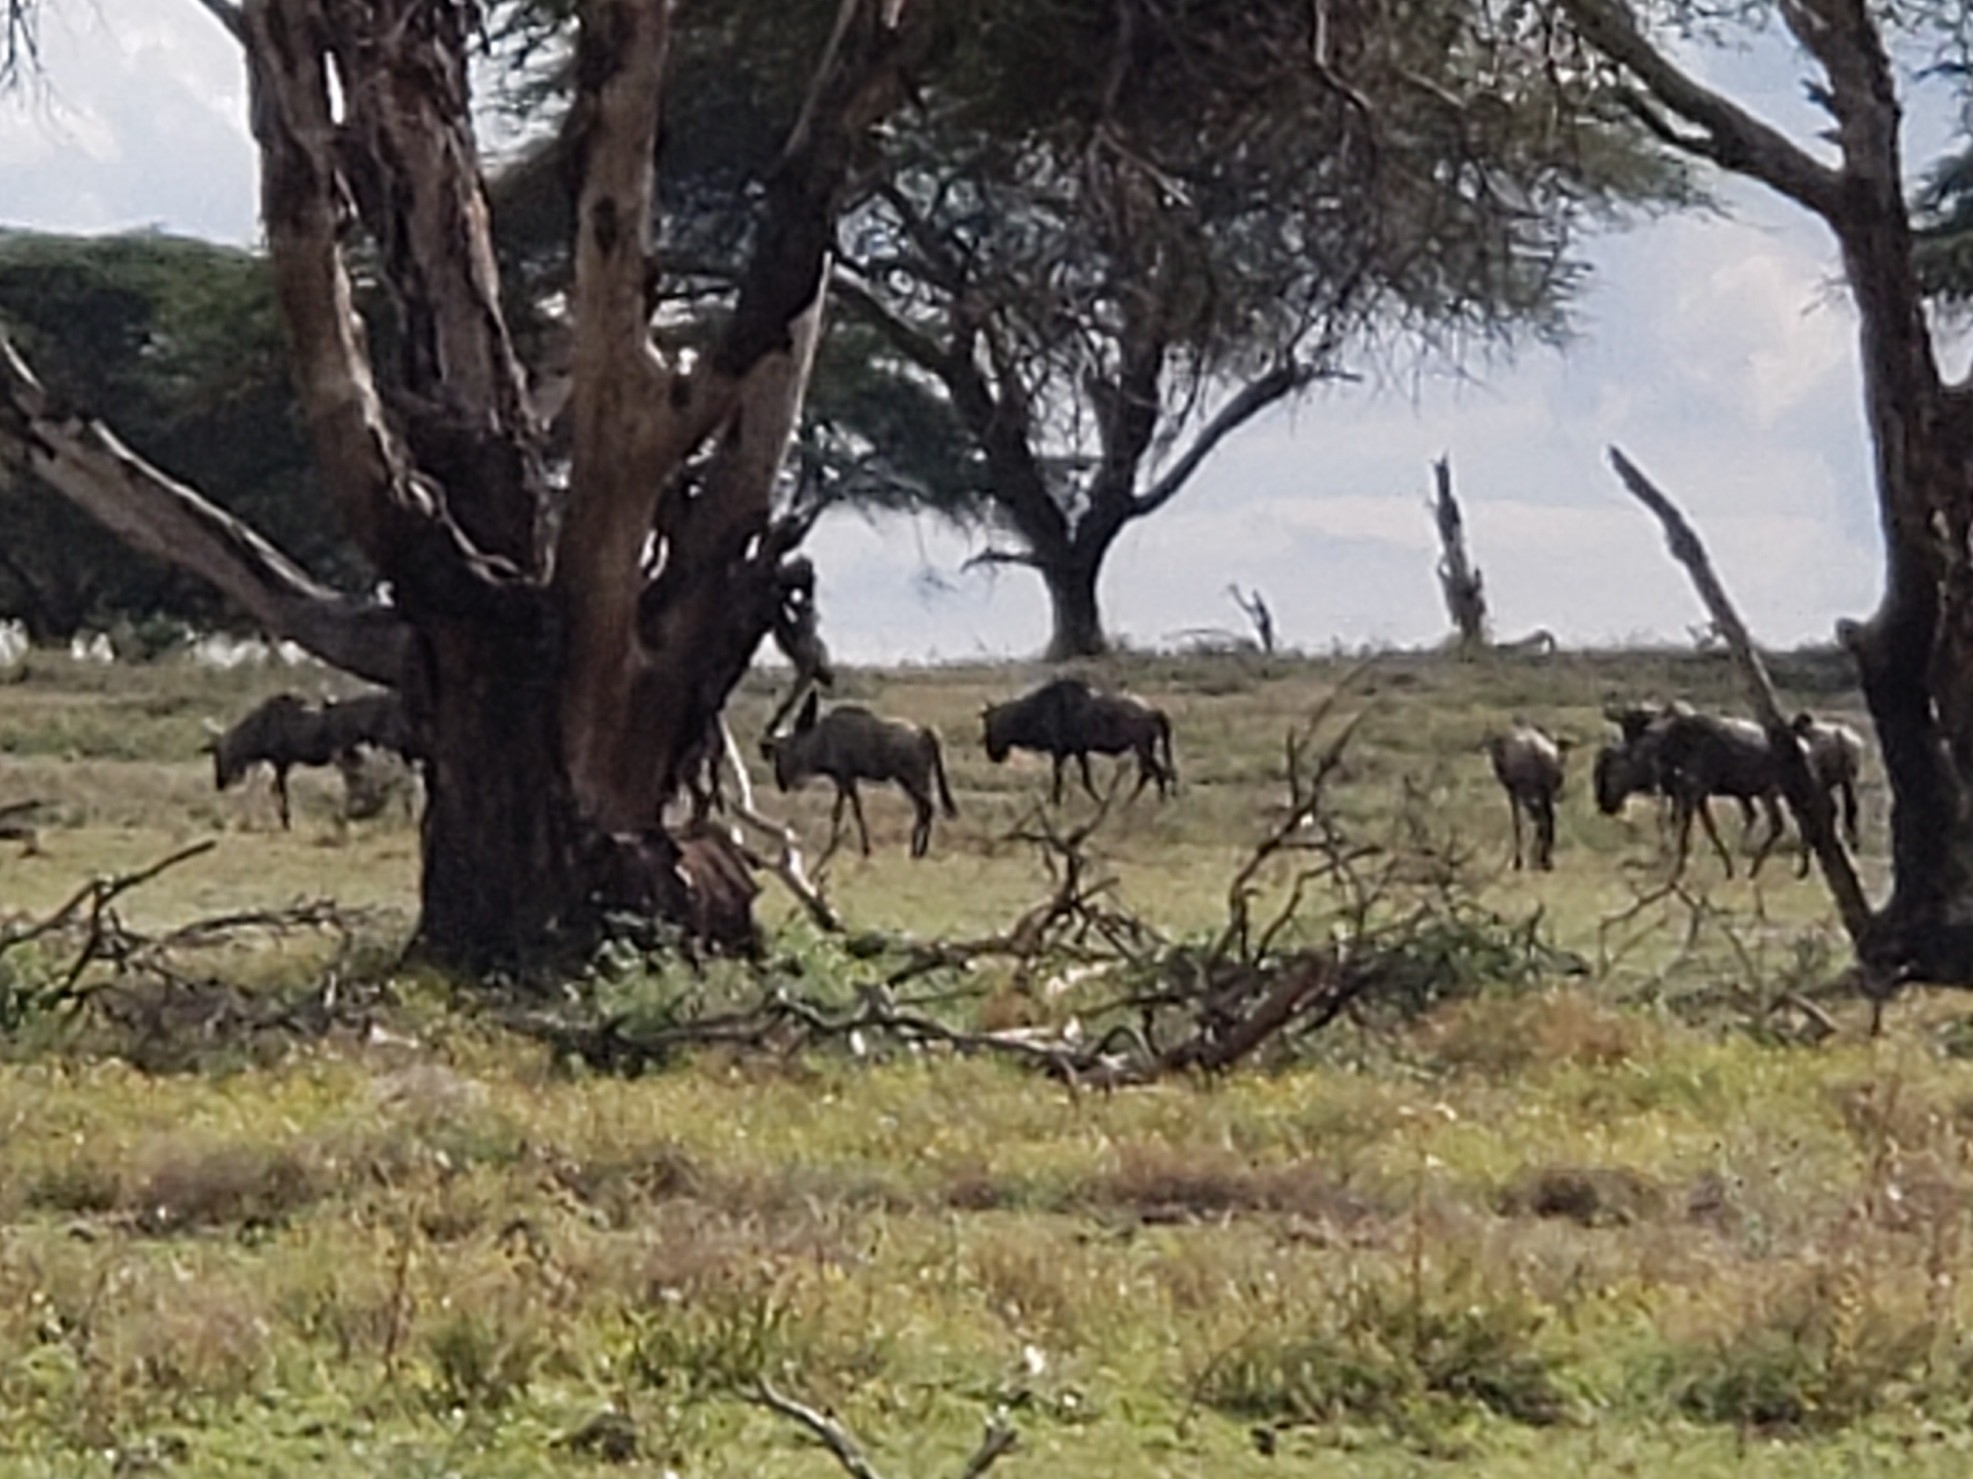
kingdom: Animalia
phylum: Chordata
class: Mammalia
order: Artiodactyla
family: Bovidae
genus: Connochaetes
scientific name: Connochaetes taurinus
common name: Blue wildebeest
